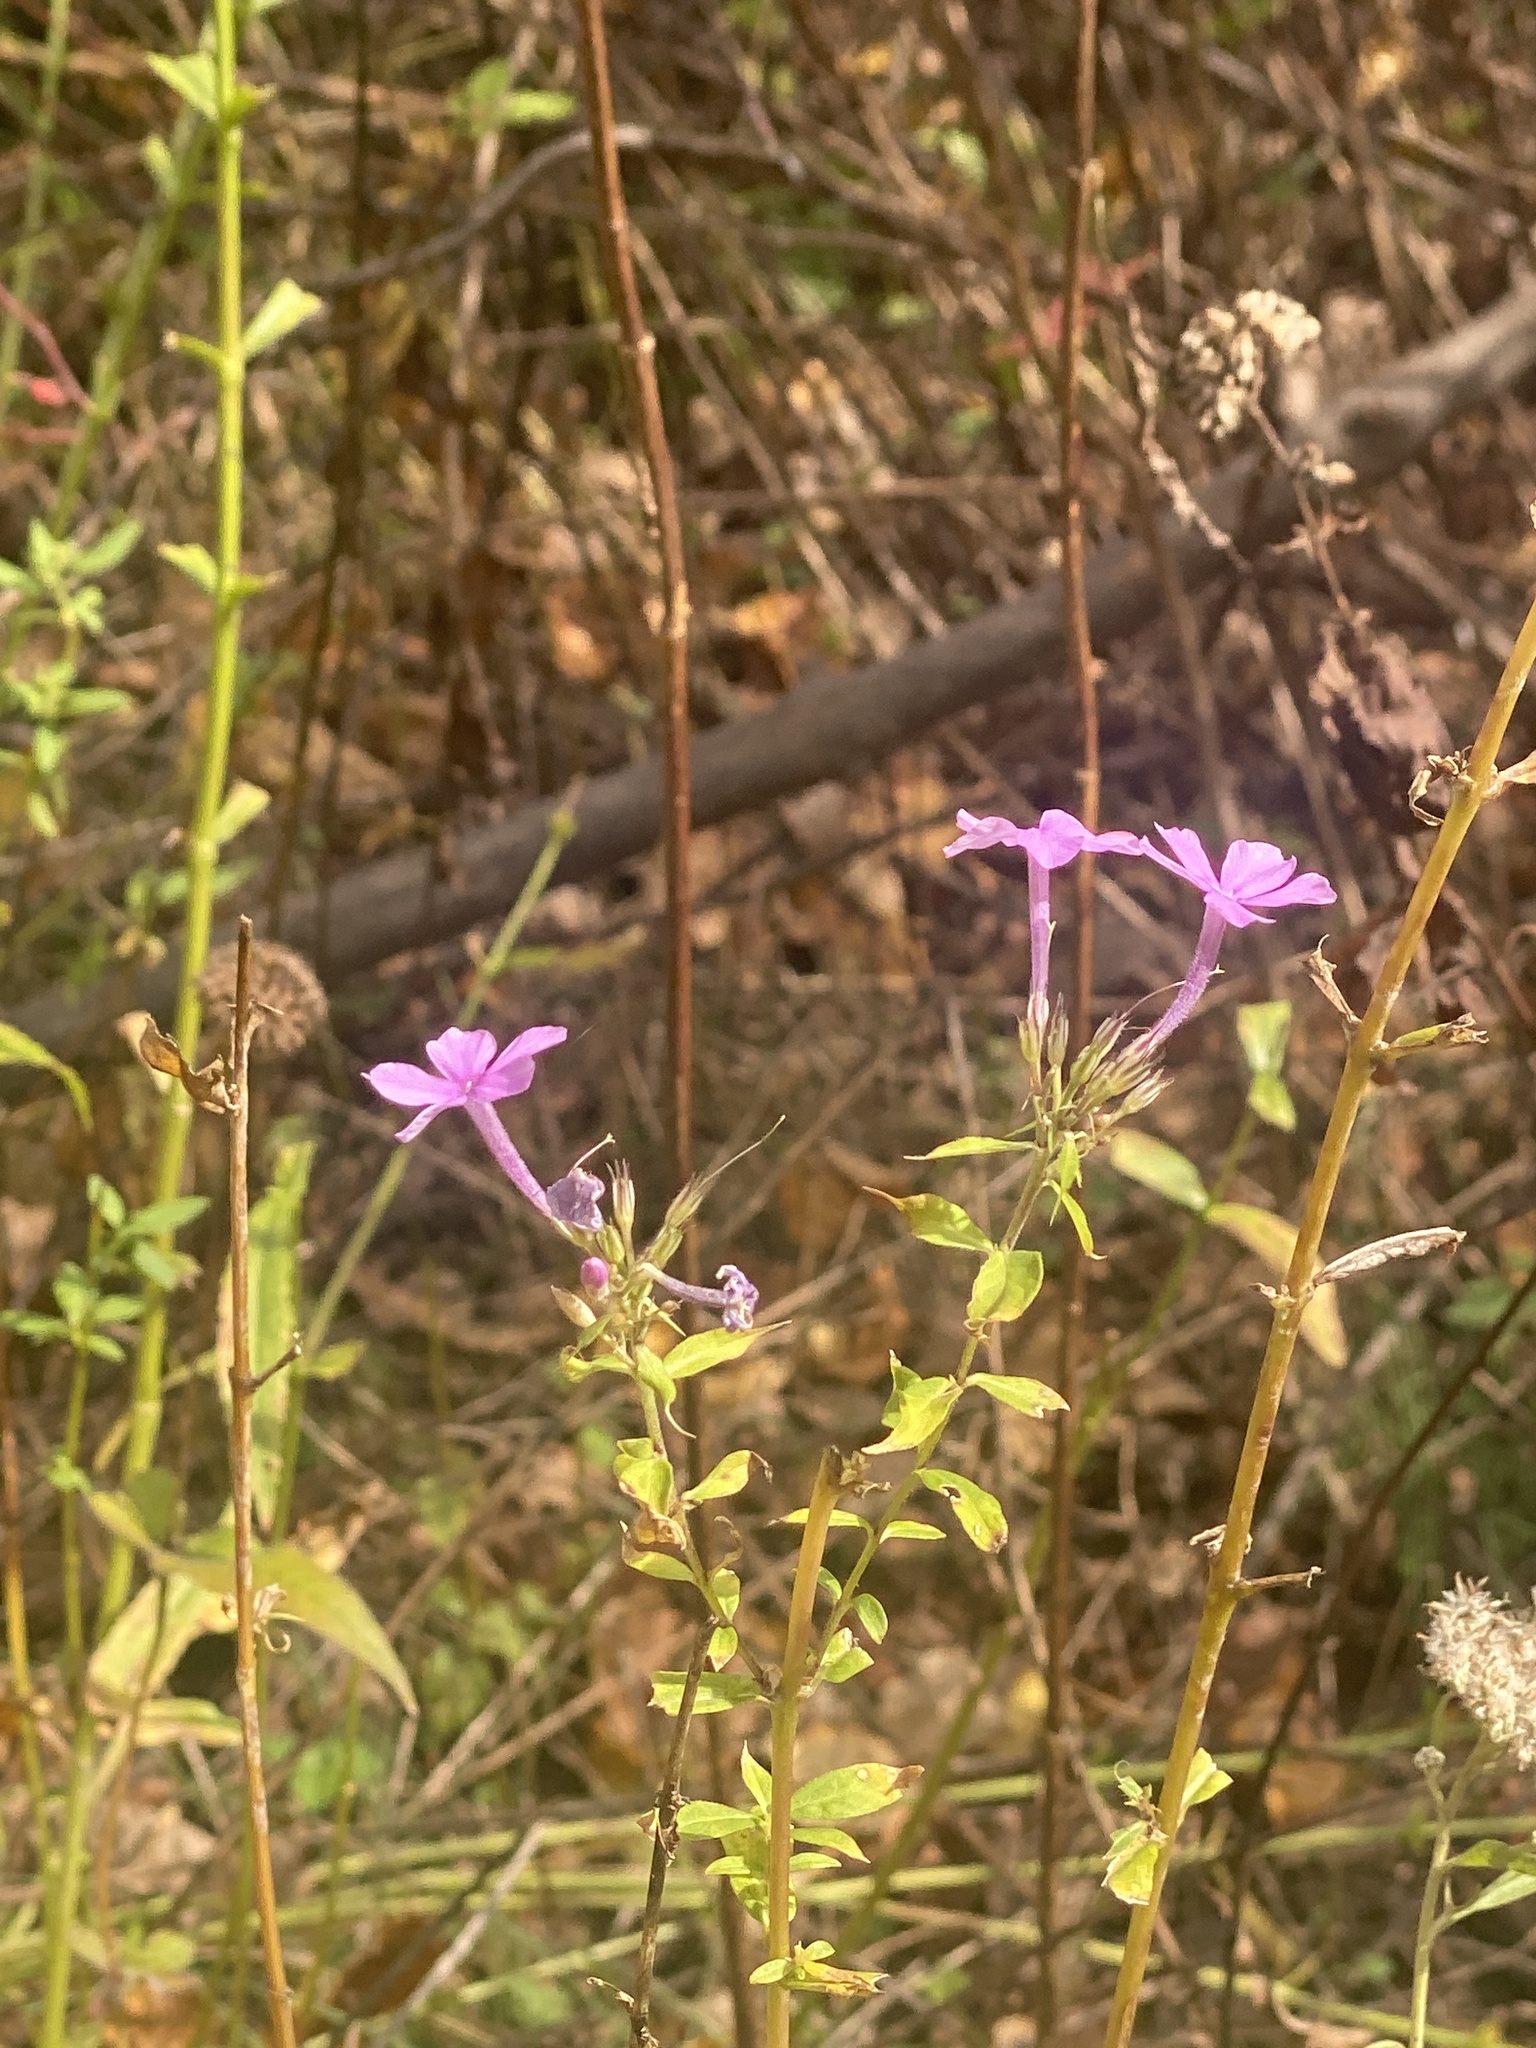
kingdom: Plantae
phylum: Tracheophyta
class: Magnoliopsida
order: Ericales
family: Polemoniaceae
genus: Phlox
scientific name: Phlox paniculata
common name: Fall phlox
